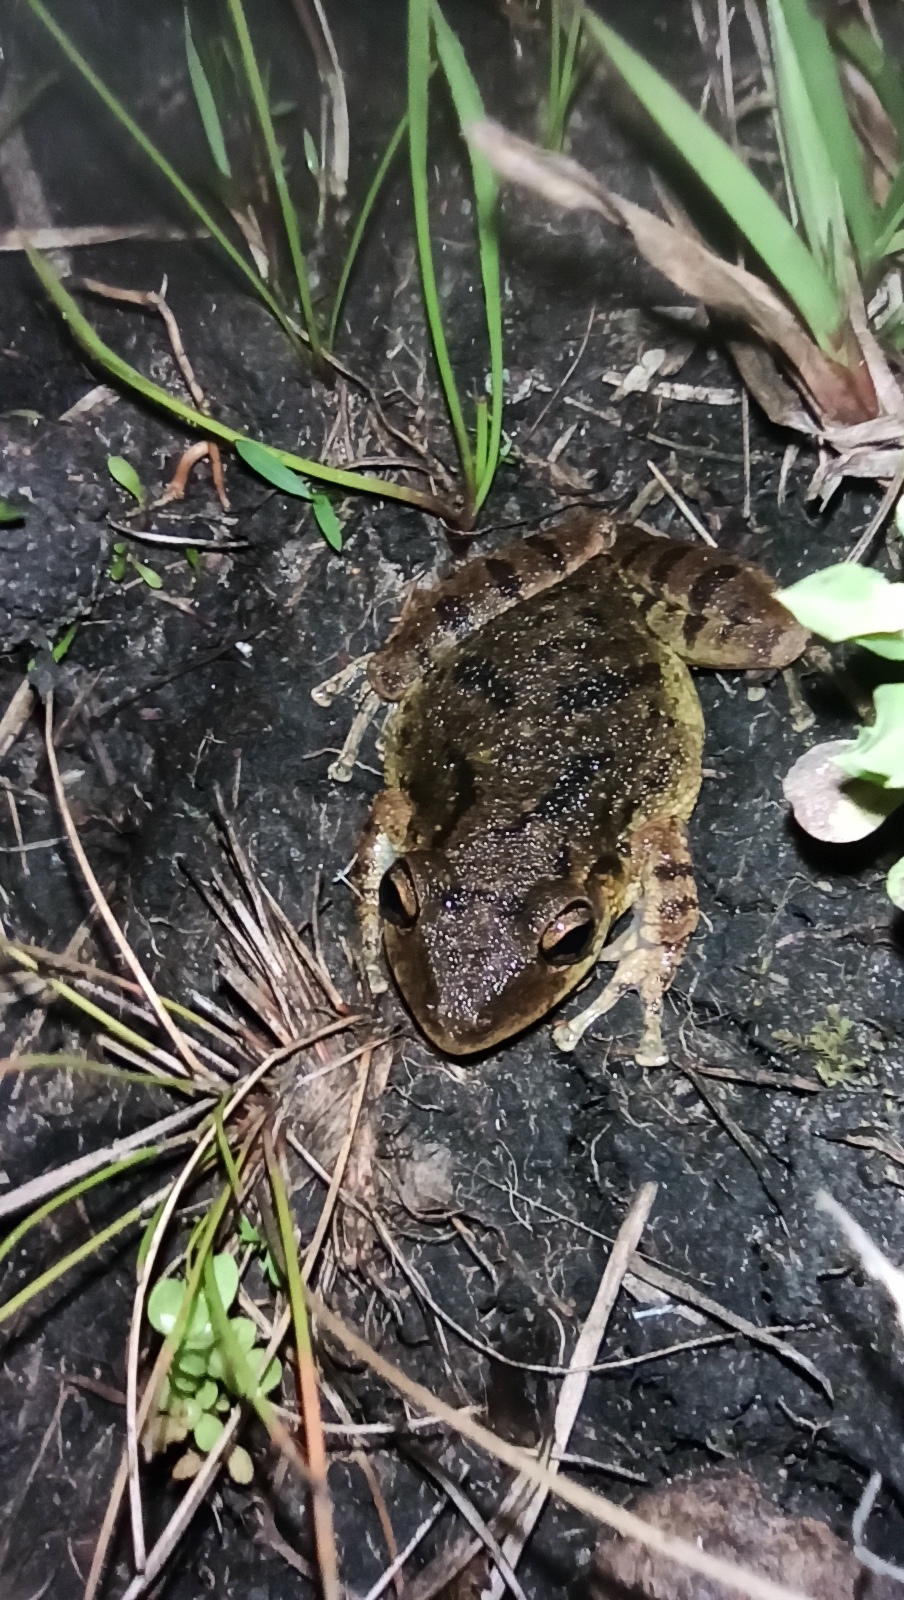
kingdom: Animalia
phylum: Chordata
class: Amphibia
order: Anura
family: Hylidae
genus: Scinax
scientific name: Scinax fuscovarius
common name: Fuscous-blotched treefrog
